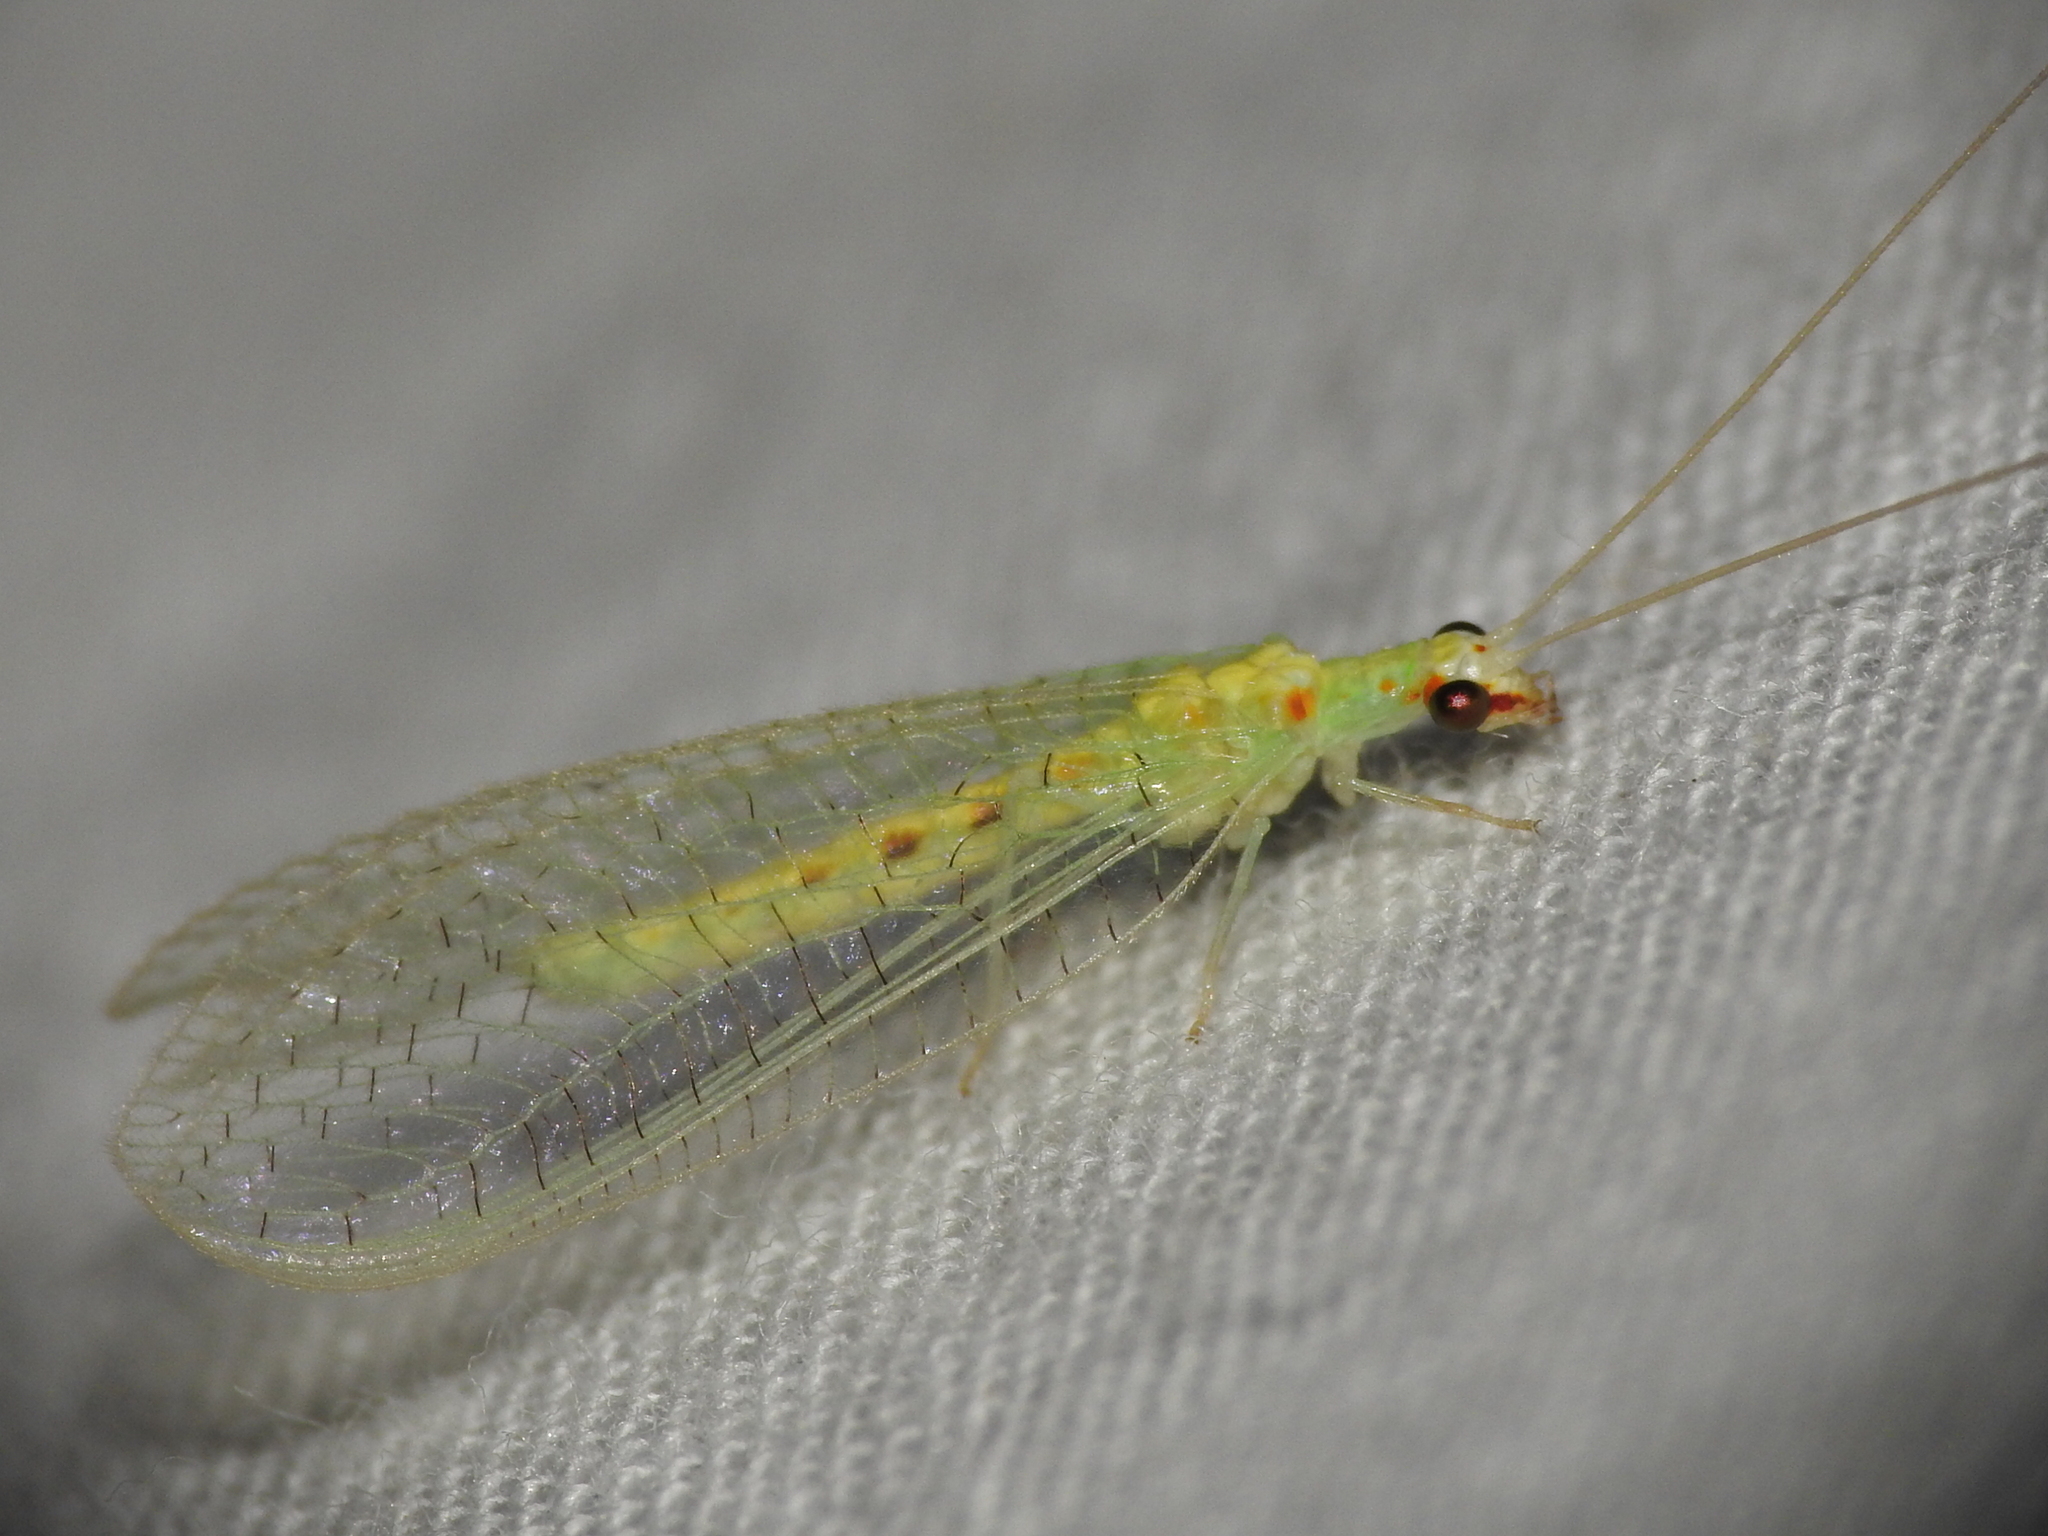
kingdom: Animalia
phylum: Arthropoda
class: Insecta
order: Neuroptera
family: Chrysopidae
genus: Chrysopa
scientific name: Chrysopa quadripunctata
